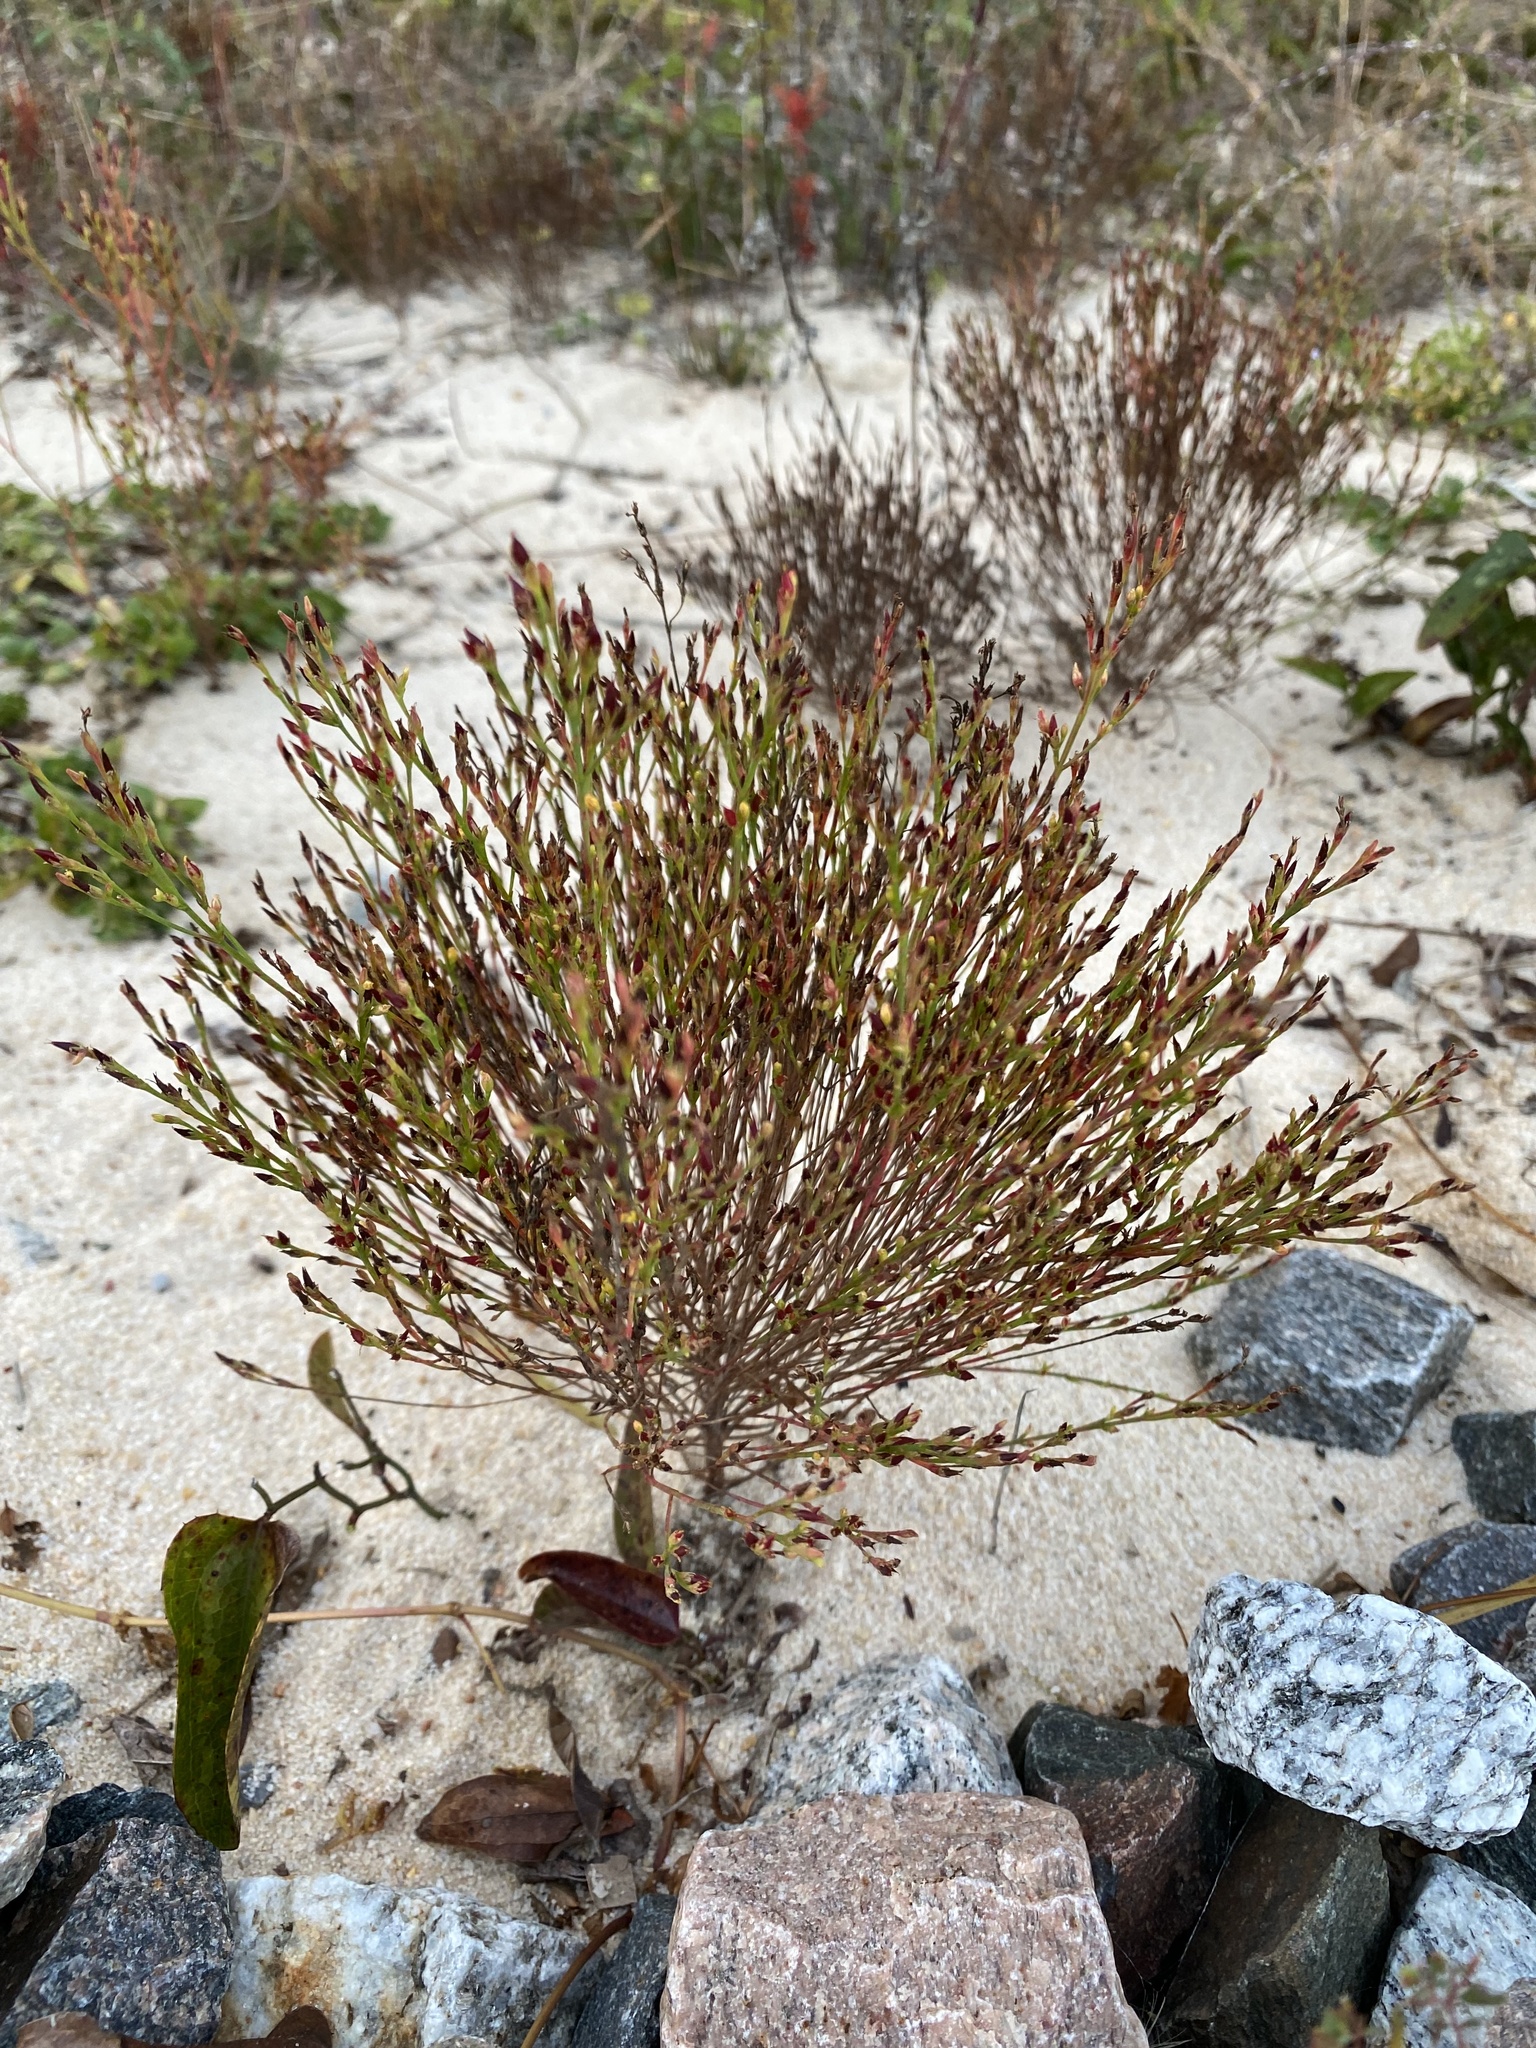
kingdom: Plantae
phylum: Tracheophyta
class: Magnoliopsida
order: Malpighiales
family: Hypericaceae
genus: Hypericum
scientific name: Hypericum gentianoides
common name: Gentian-leaved st. john's-wort
